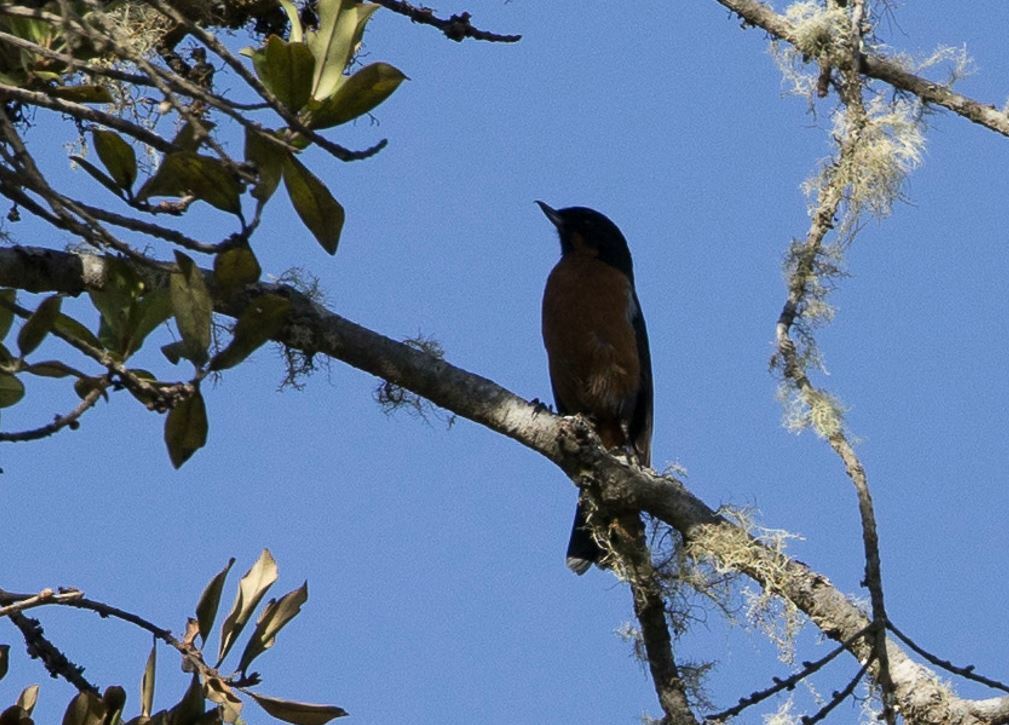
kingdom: Animalia
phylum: Chordata
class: Aves
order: Passeriformes
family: Thraupidae
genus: Diglossa
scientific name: Diglossa brunneiventris
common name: Black-throated flowerpiercer
